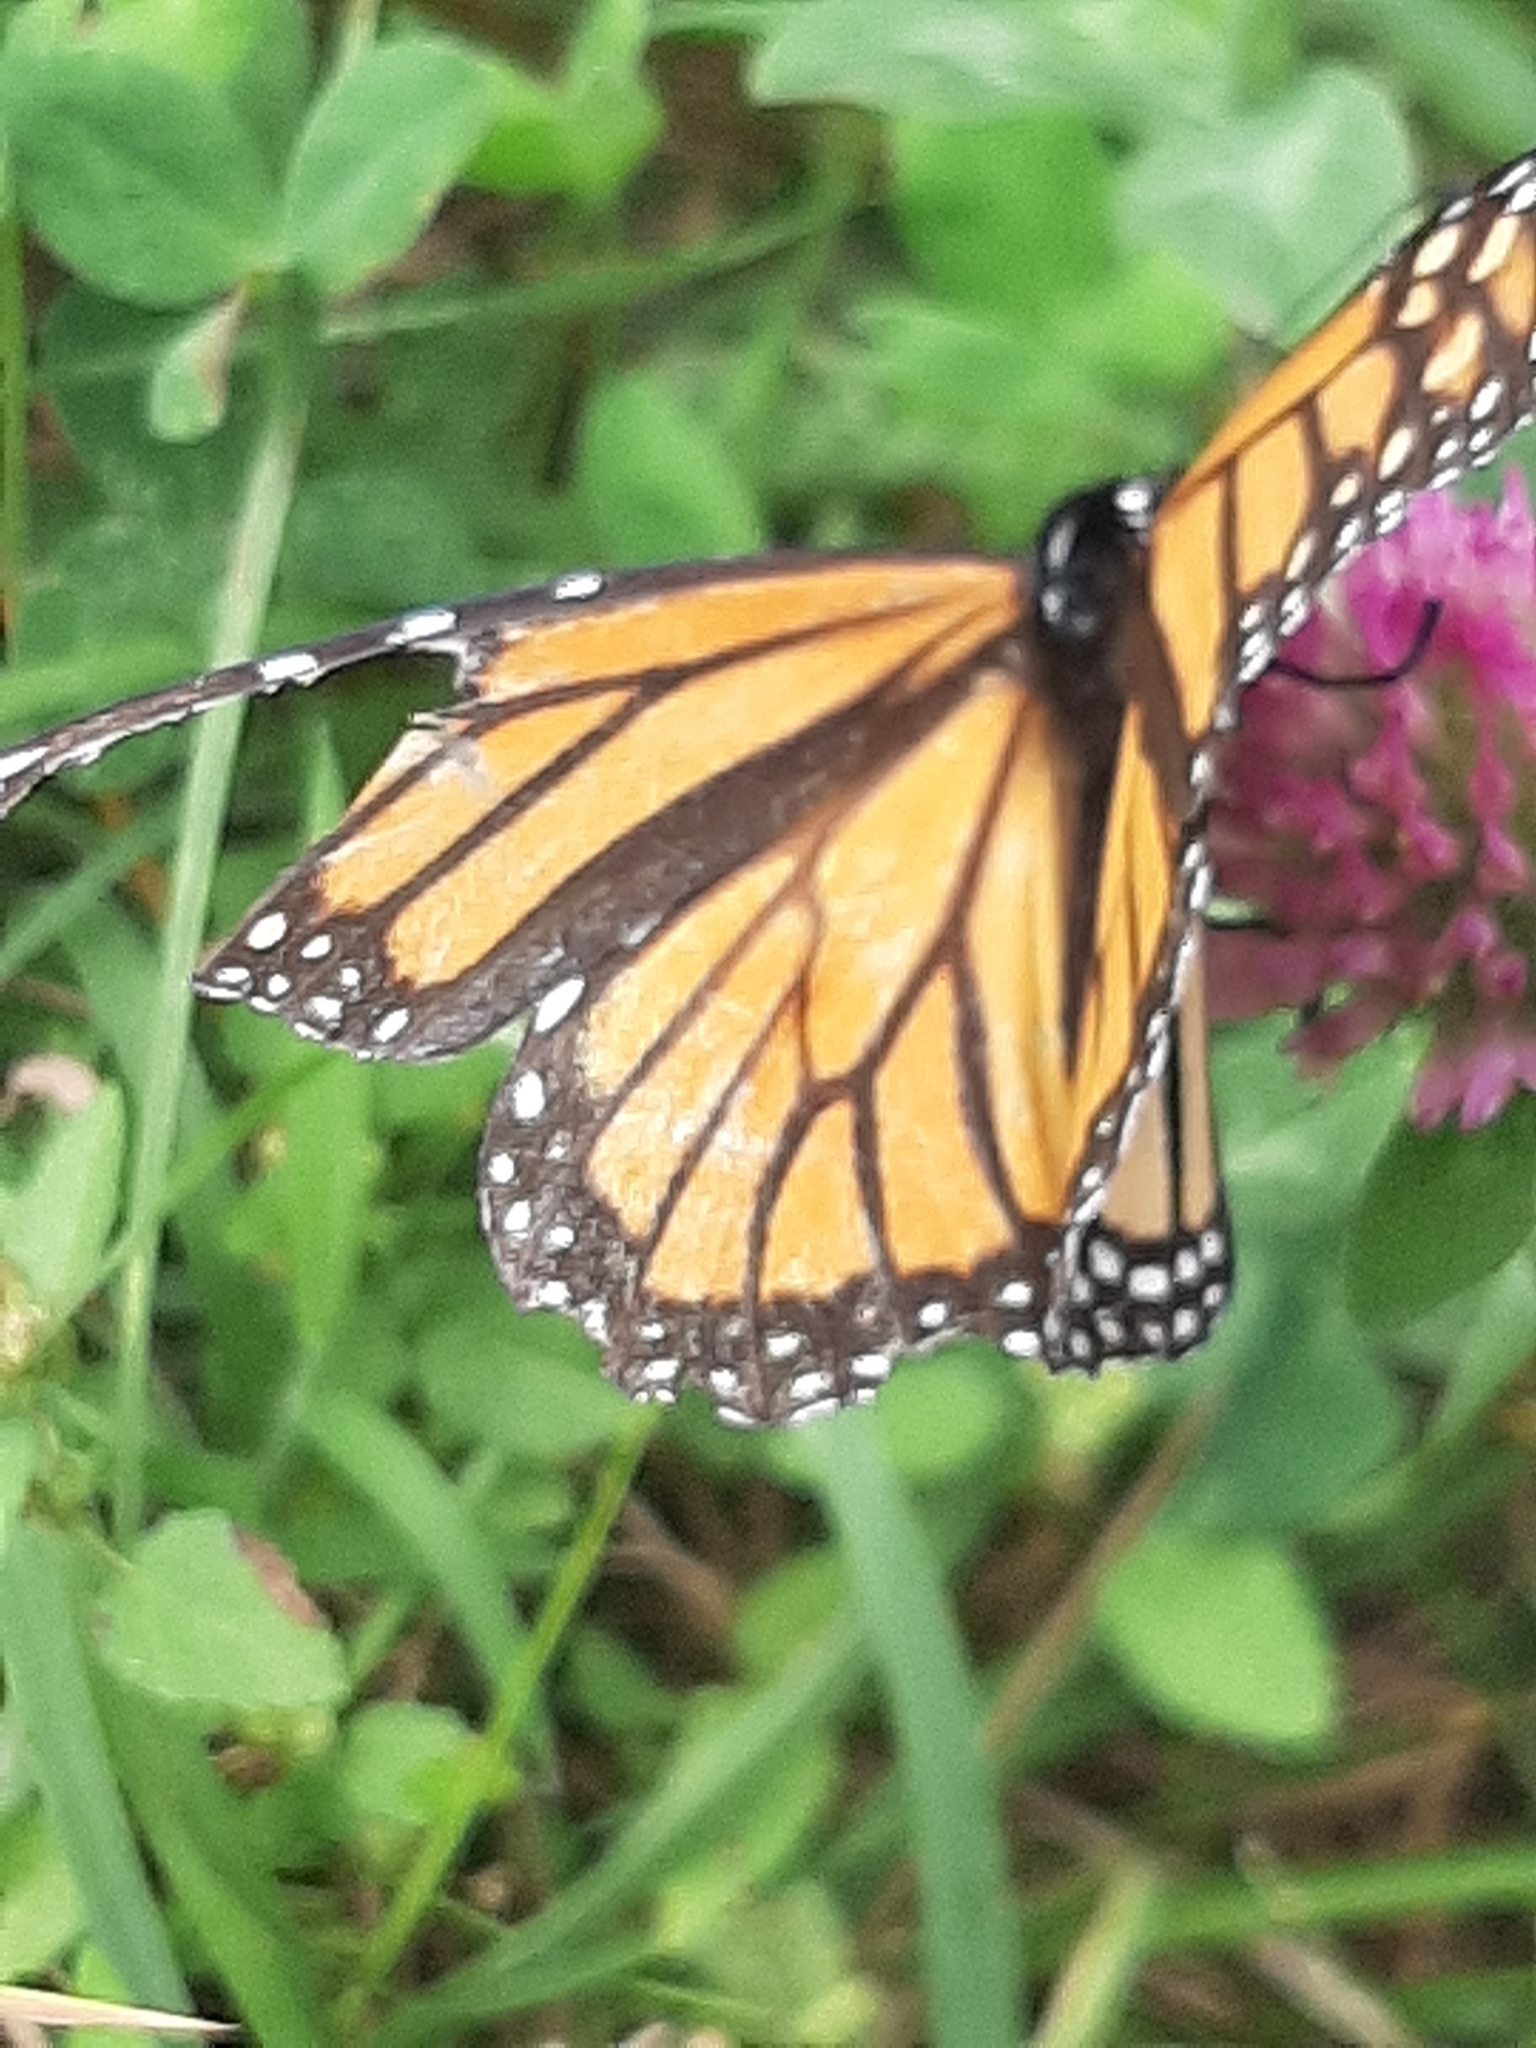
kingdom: Animalia
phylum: Arthropoda
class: Insecta
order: Lepidoptera
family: Nymphalidae
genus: Danaus
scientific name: Danaus plexippus
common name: Monarch
